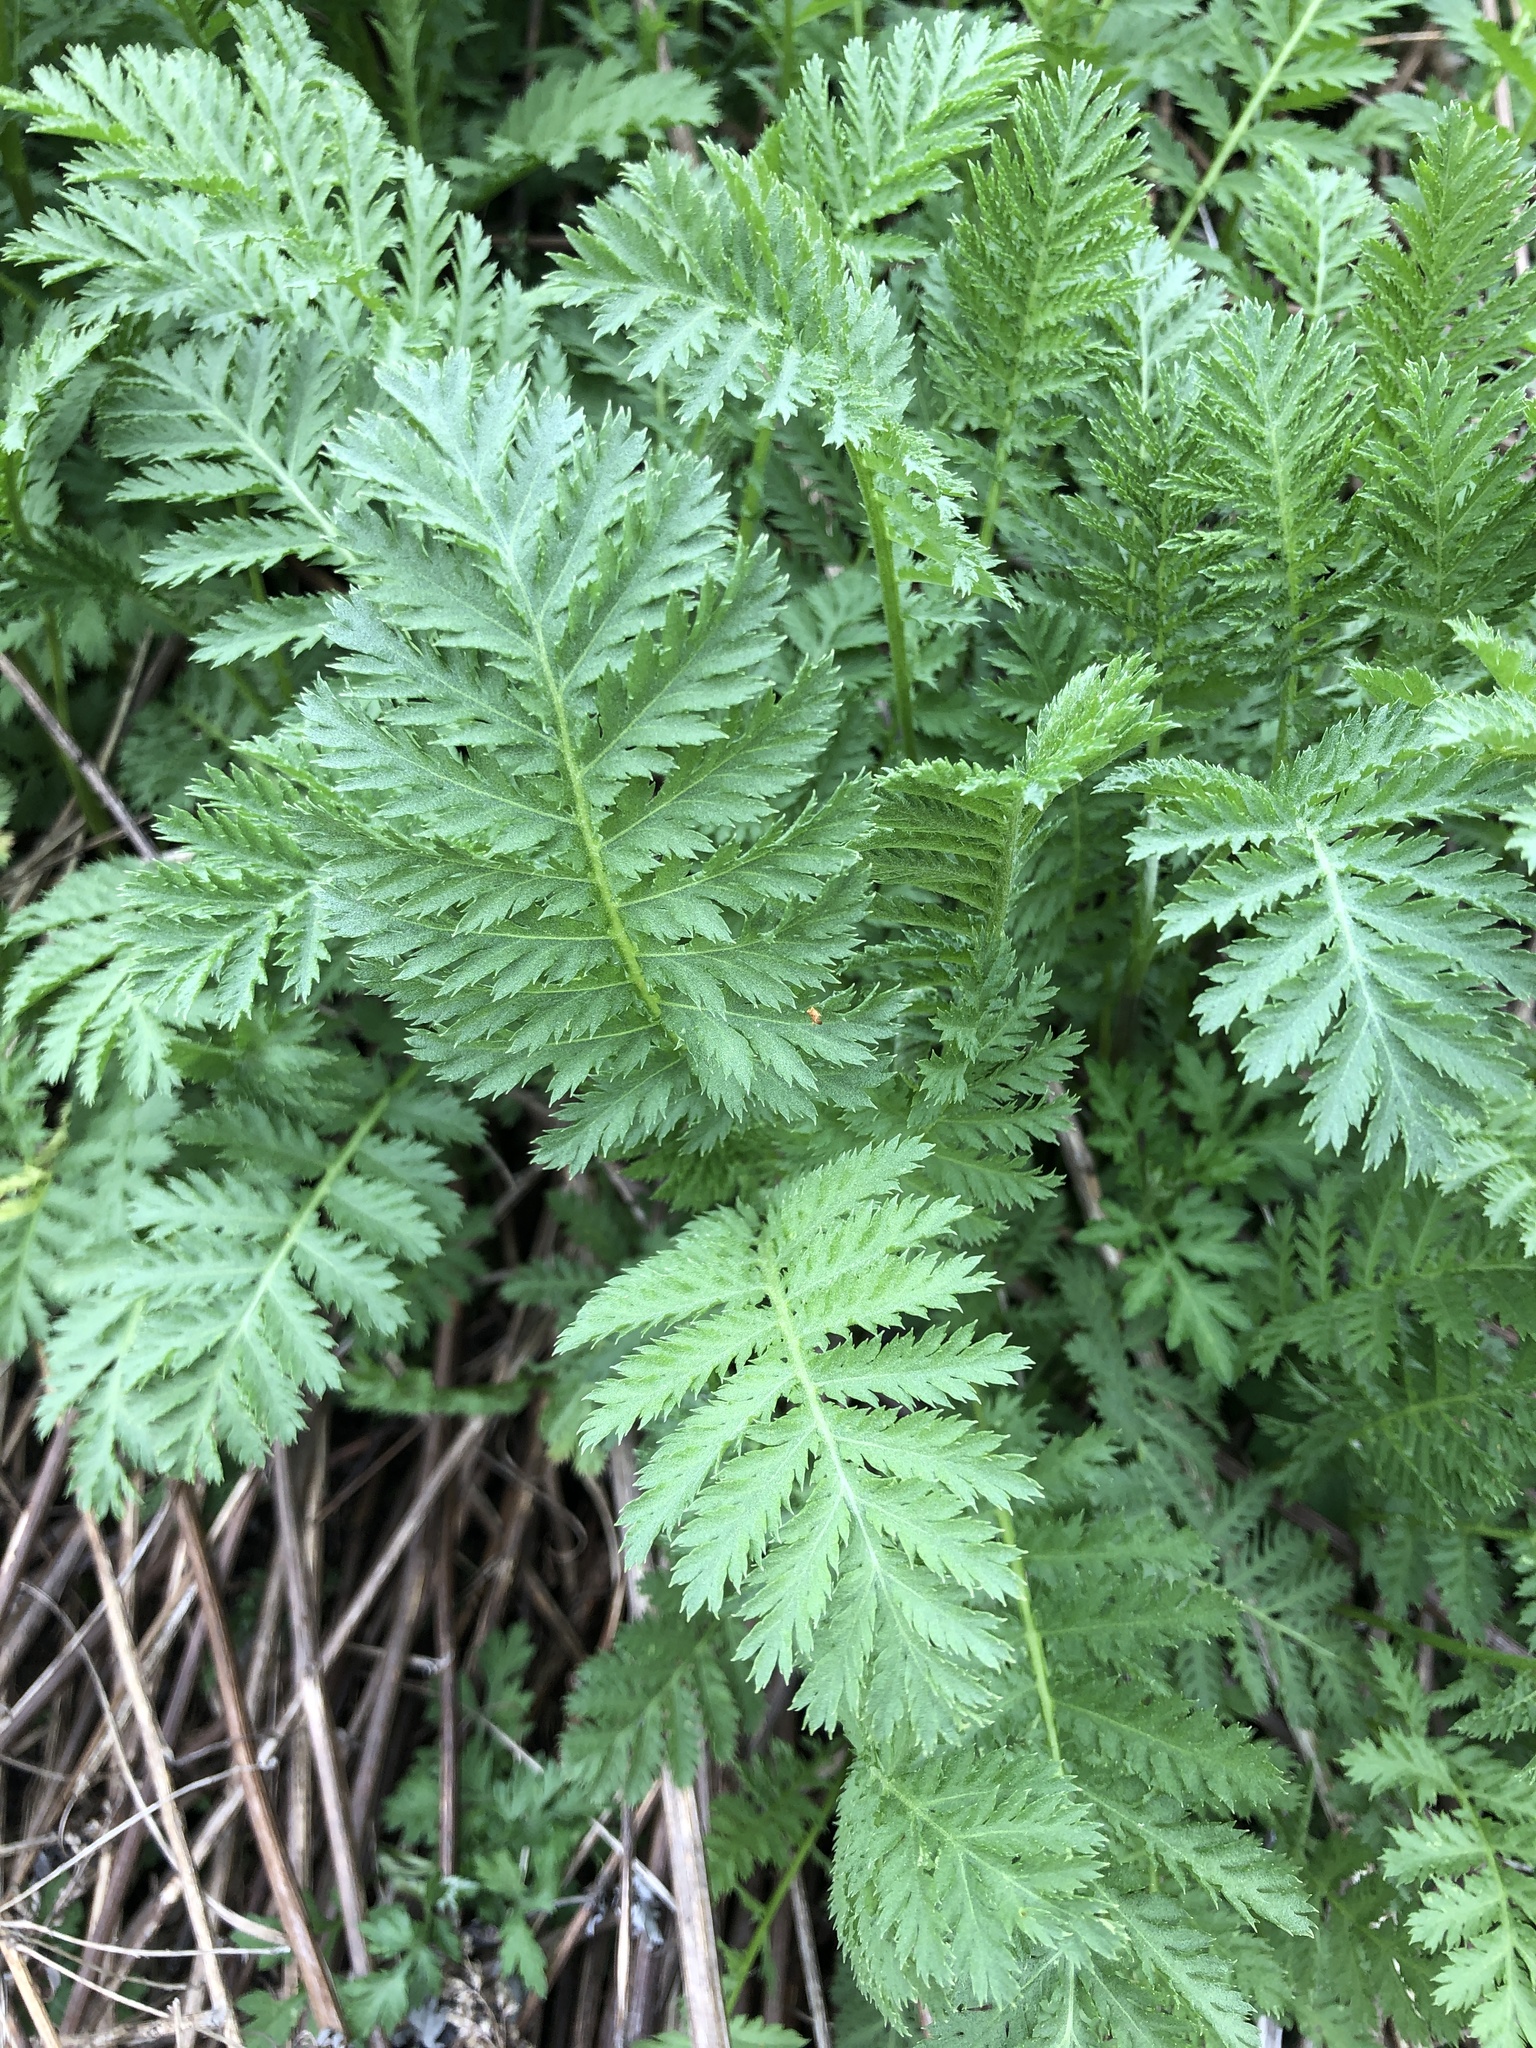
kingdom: Plantae
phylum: Tracheophyta
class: Magnoliopsida
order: Asterales
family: Asteraceae
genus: Tanacetum
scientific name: Tanacetum vulgare
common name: Common tansy
